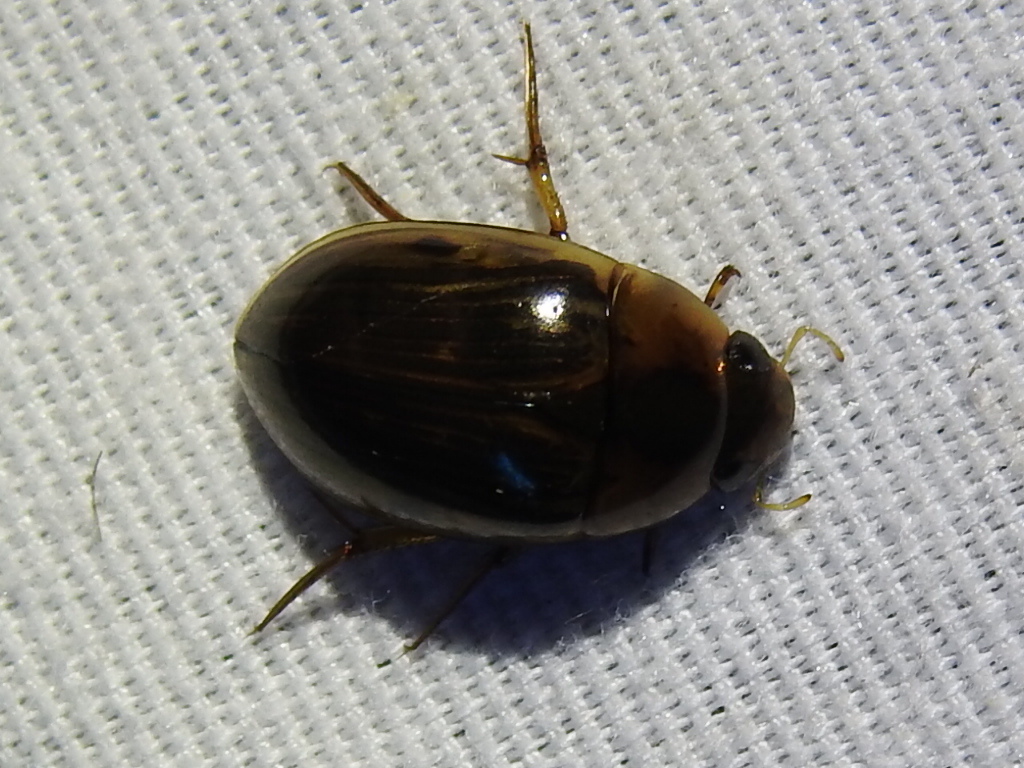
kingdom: Animalia
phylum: Arthropoda
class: Insecta
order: Coleoptera
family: Hydrophilidae
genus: Tropisternus
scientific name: Tropisternus collaris
